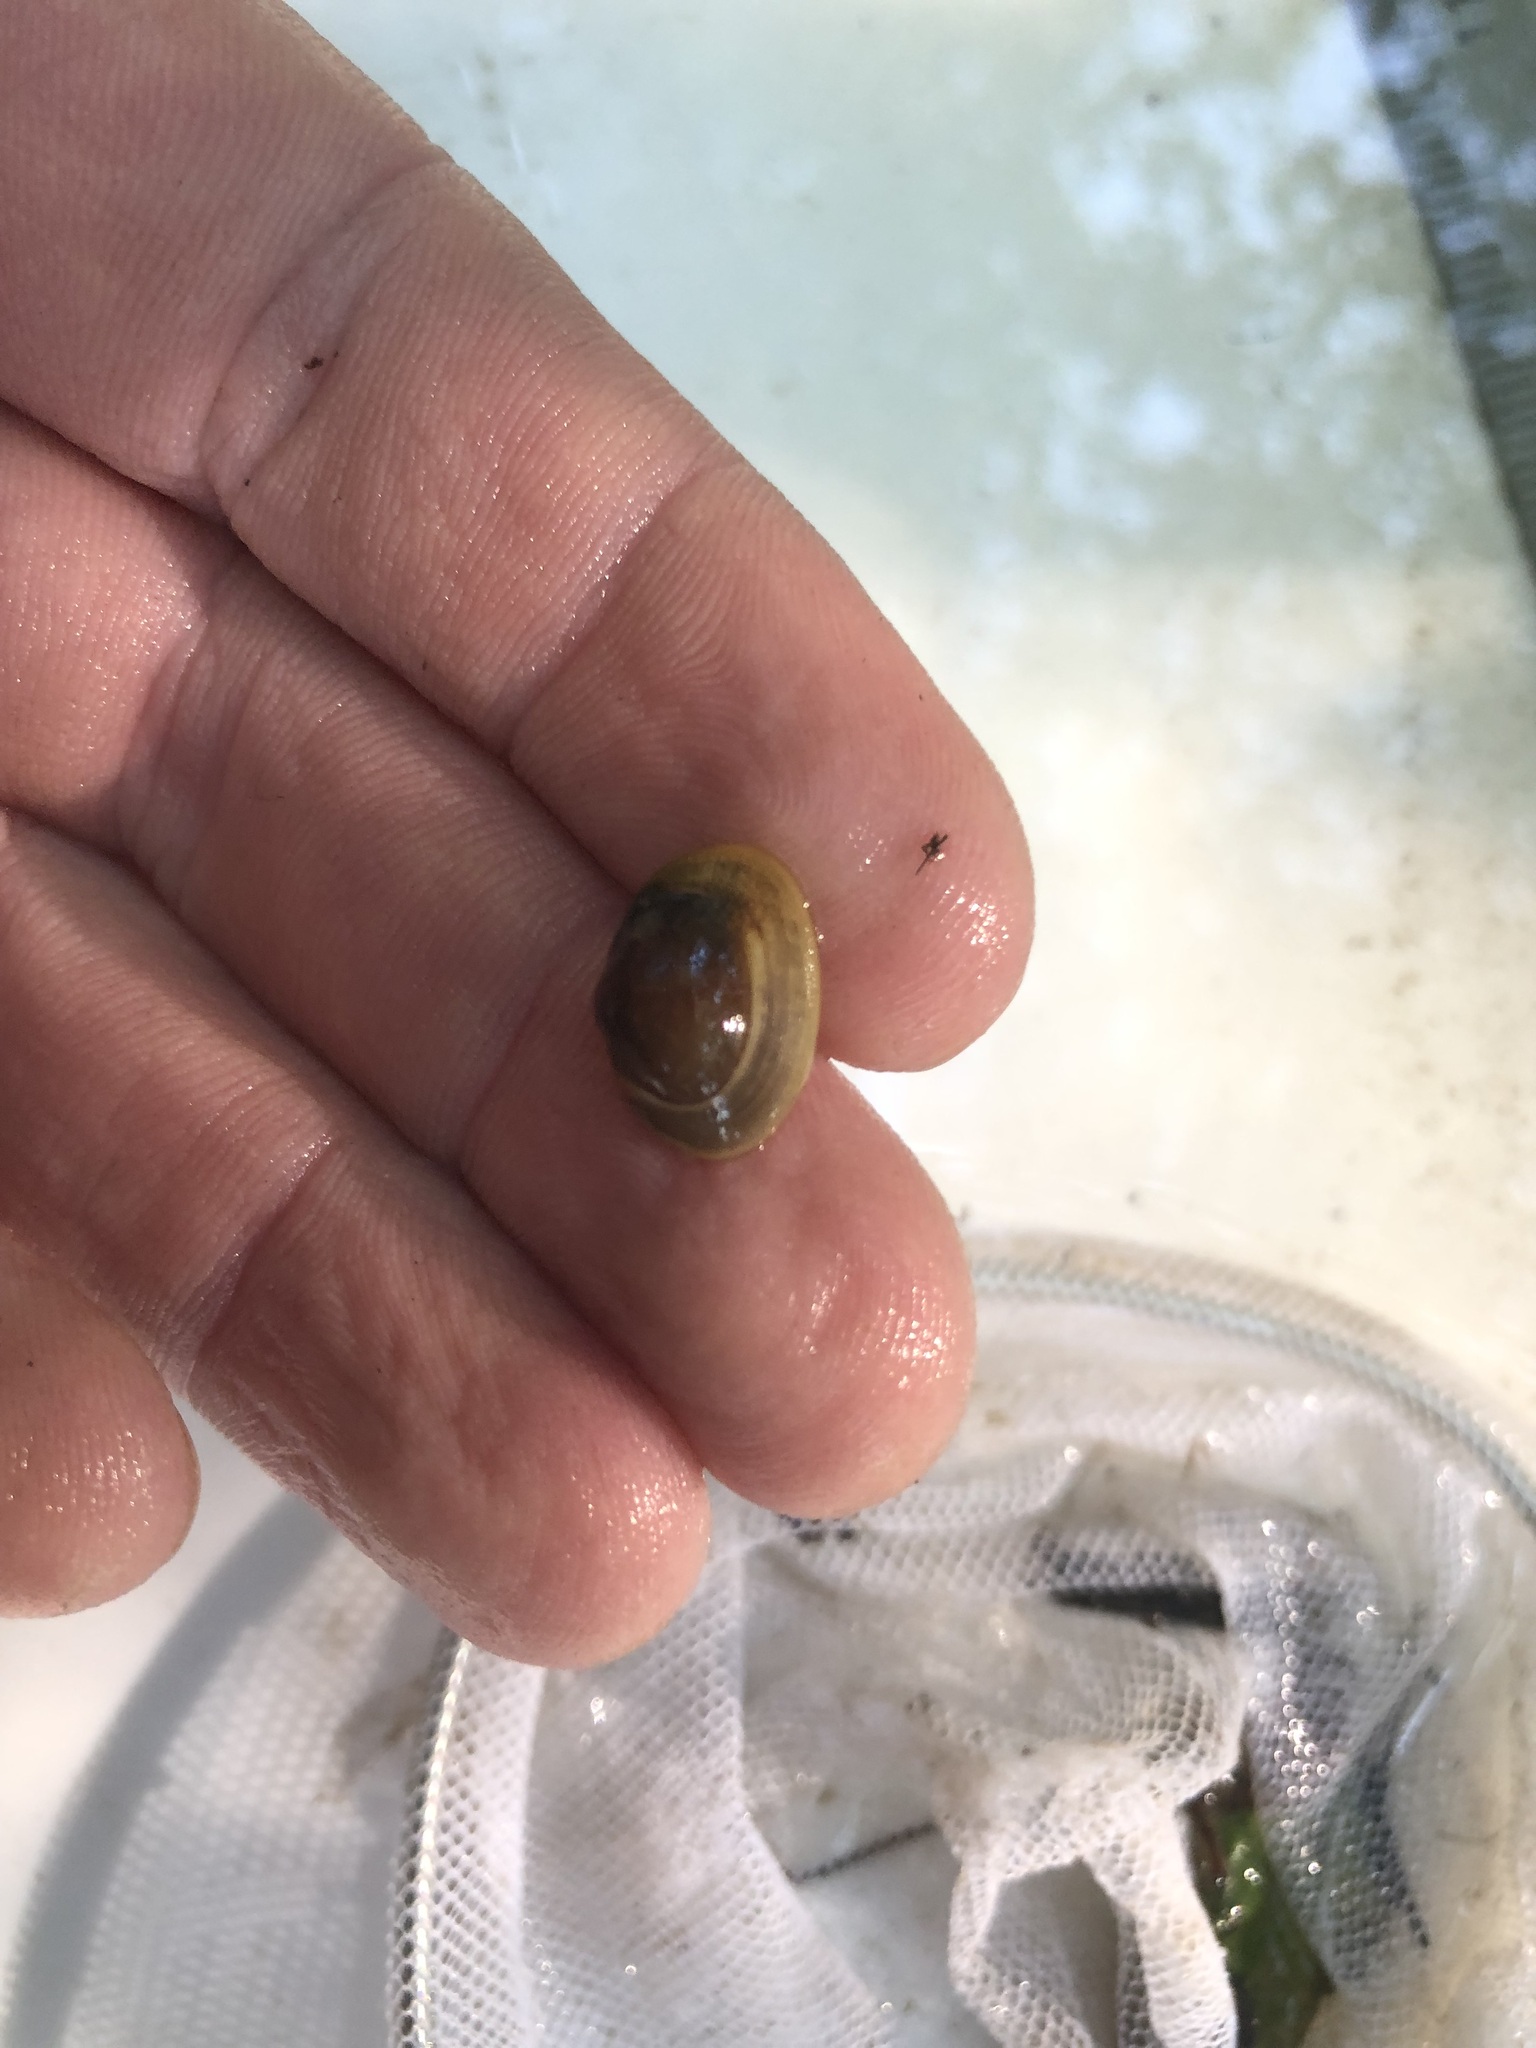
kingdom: Animalia
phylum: Mollusca
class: Bivalvia
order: Sphaeriida
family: Sphaeriidae
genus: Sphaerium
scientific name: Sphaerium simile
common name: Grooved fingernailclam
